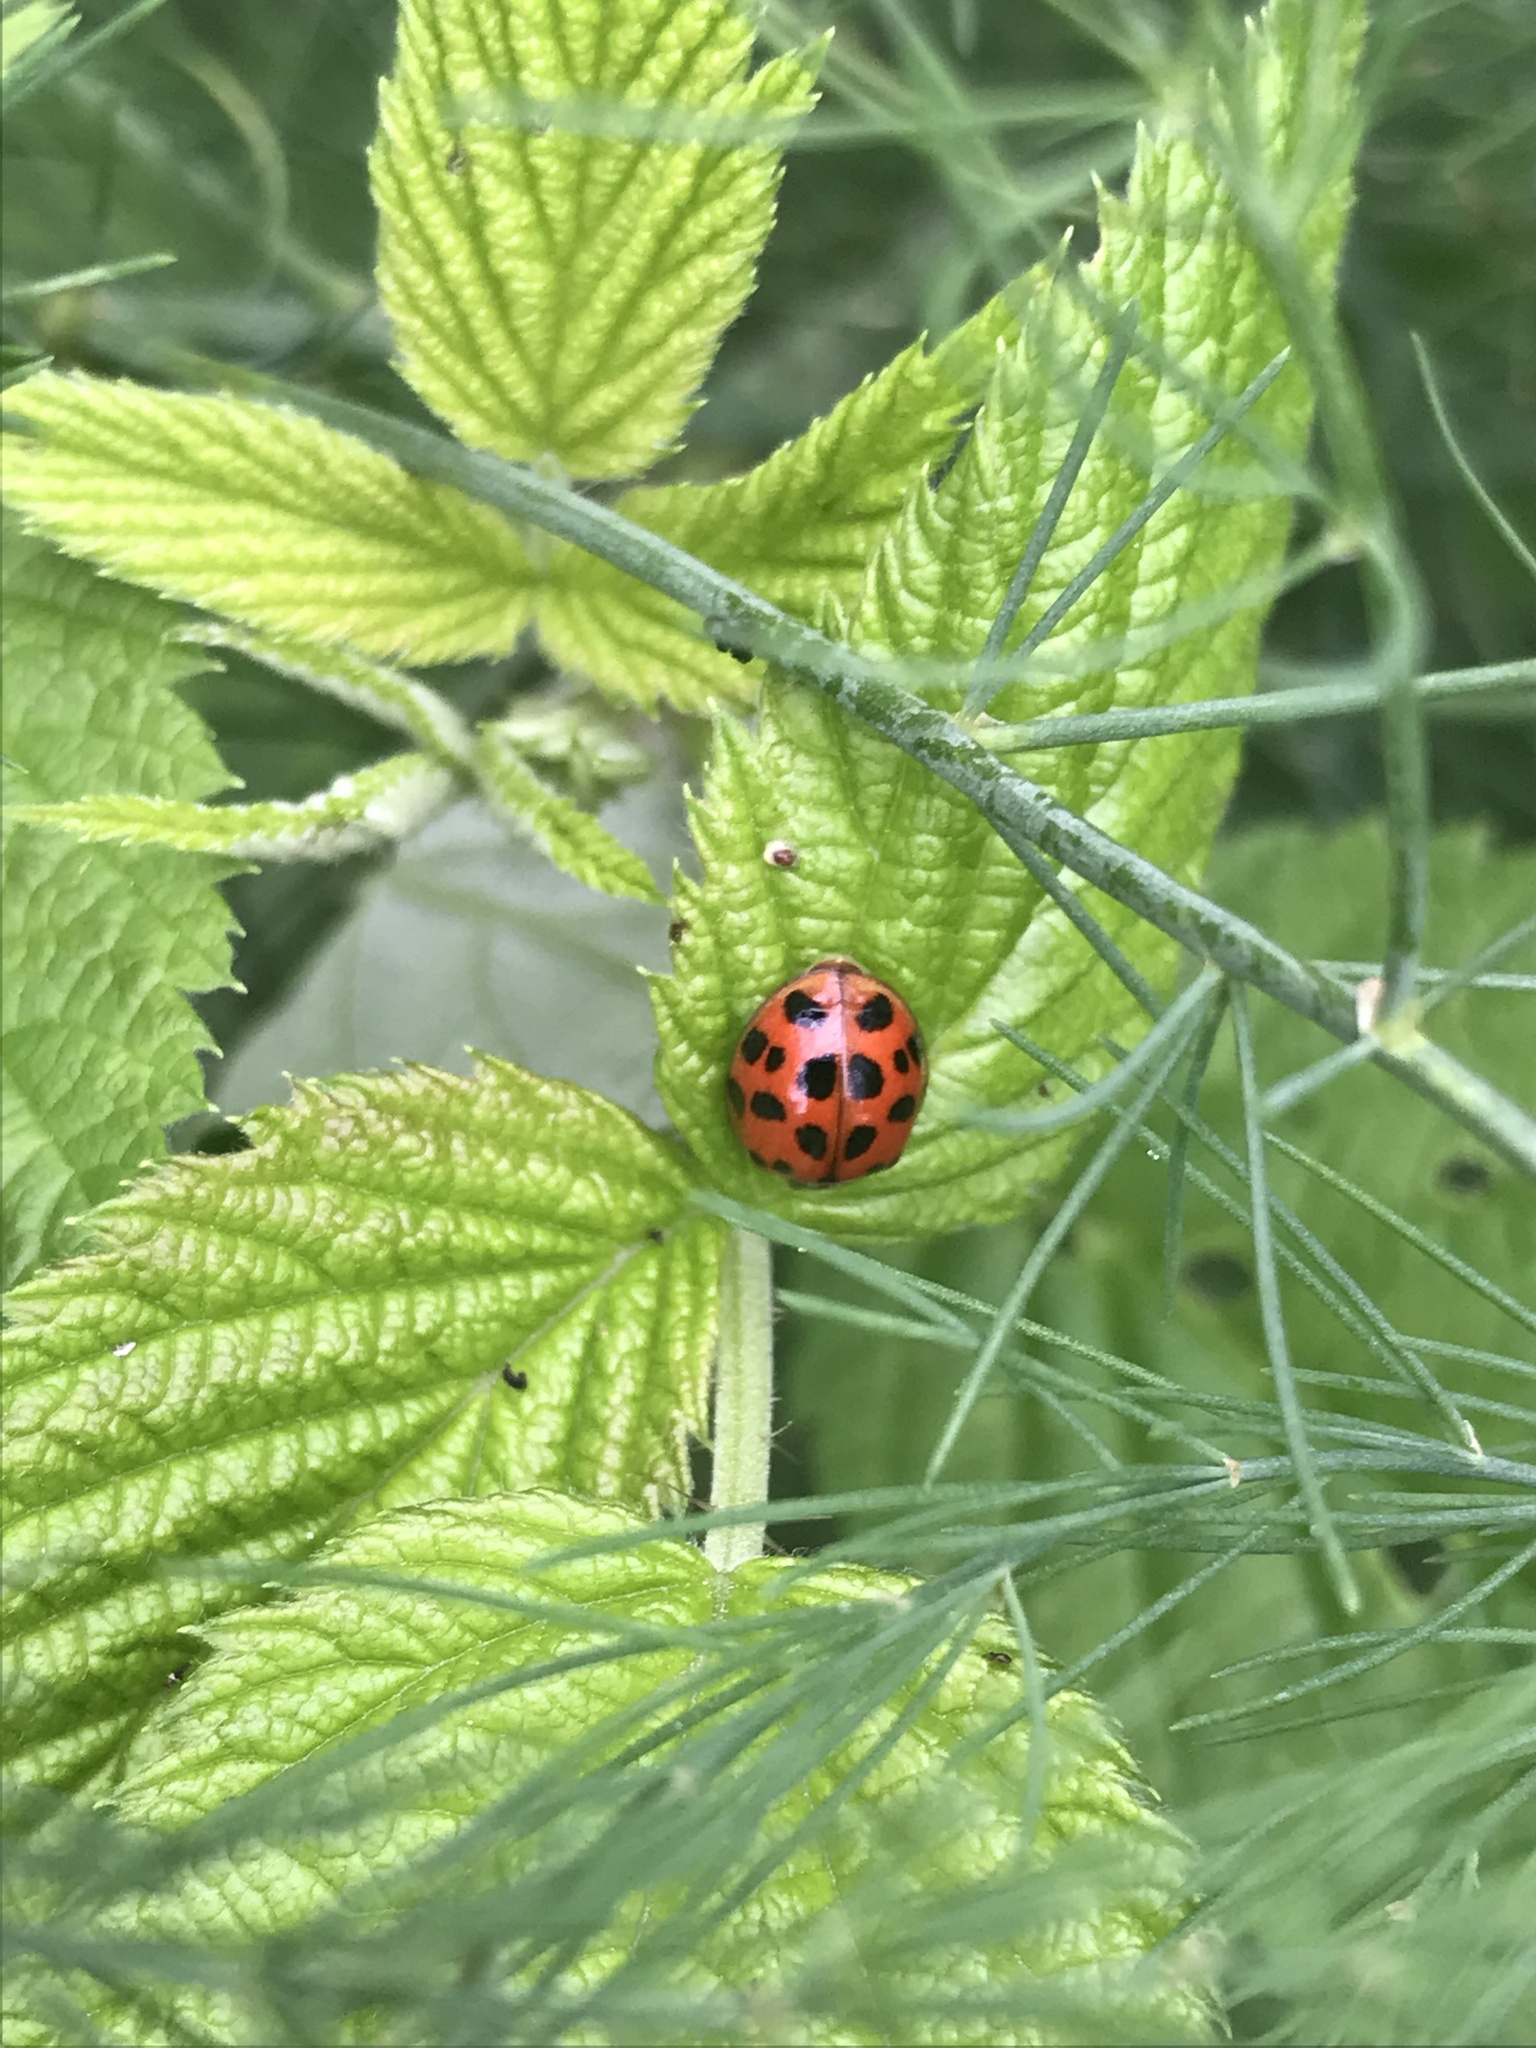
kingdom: Animalia
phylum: Arthropoda
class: Insecta
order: Coleoptera
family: Coccinellidae
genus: Harmonia
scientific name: Harmonia axyridis
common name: Harlequin ladybird
